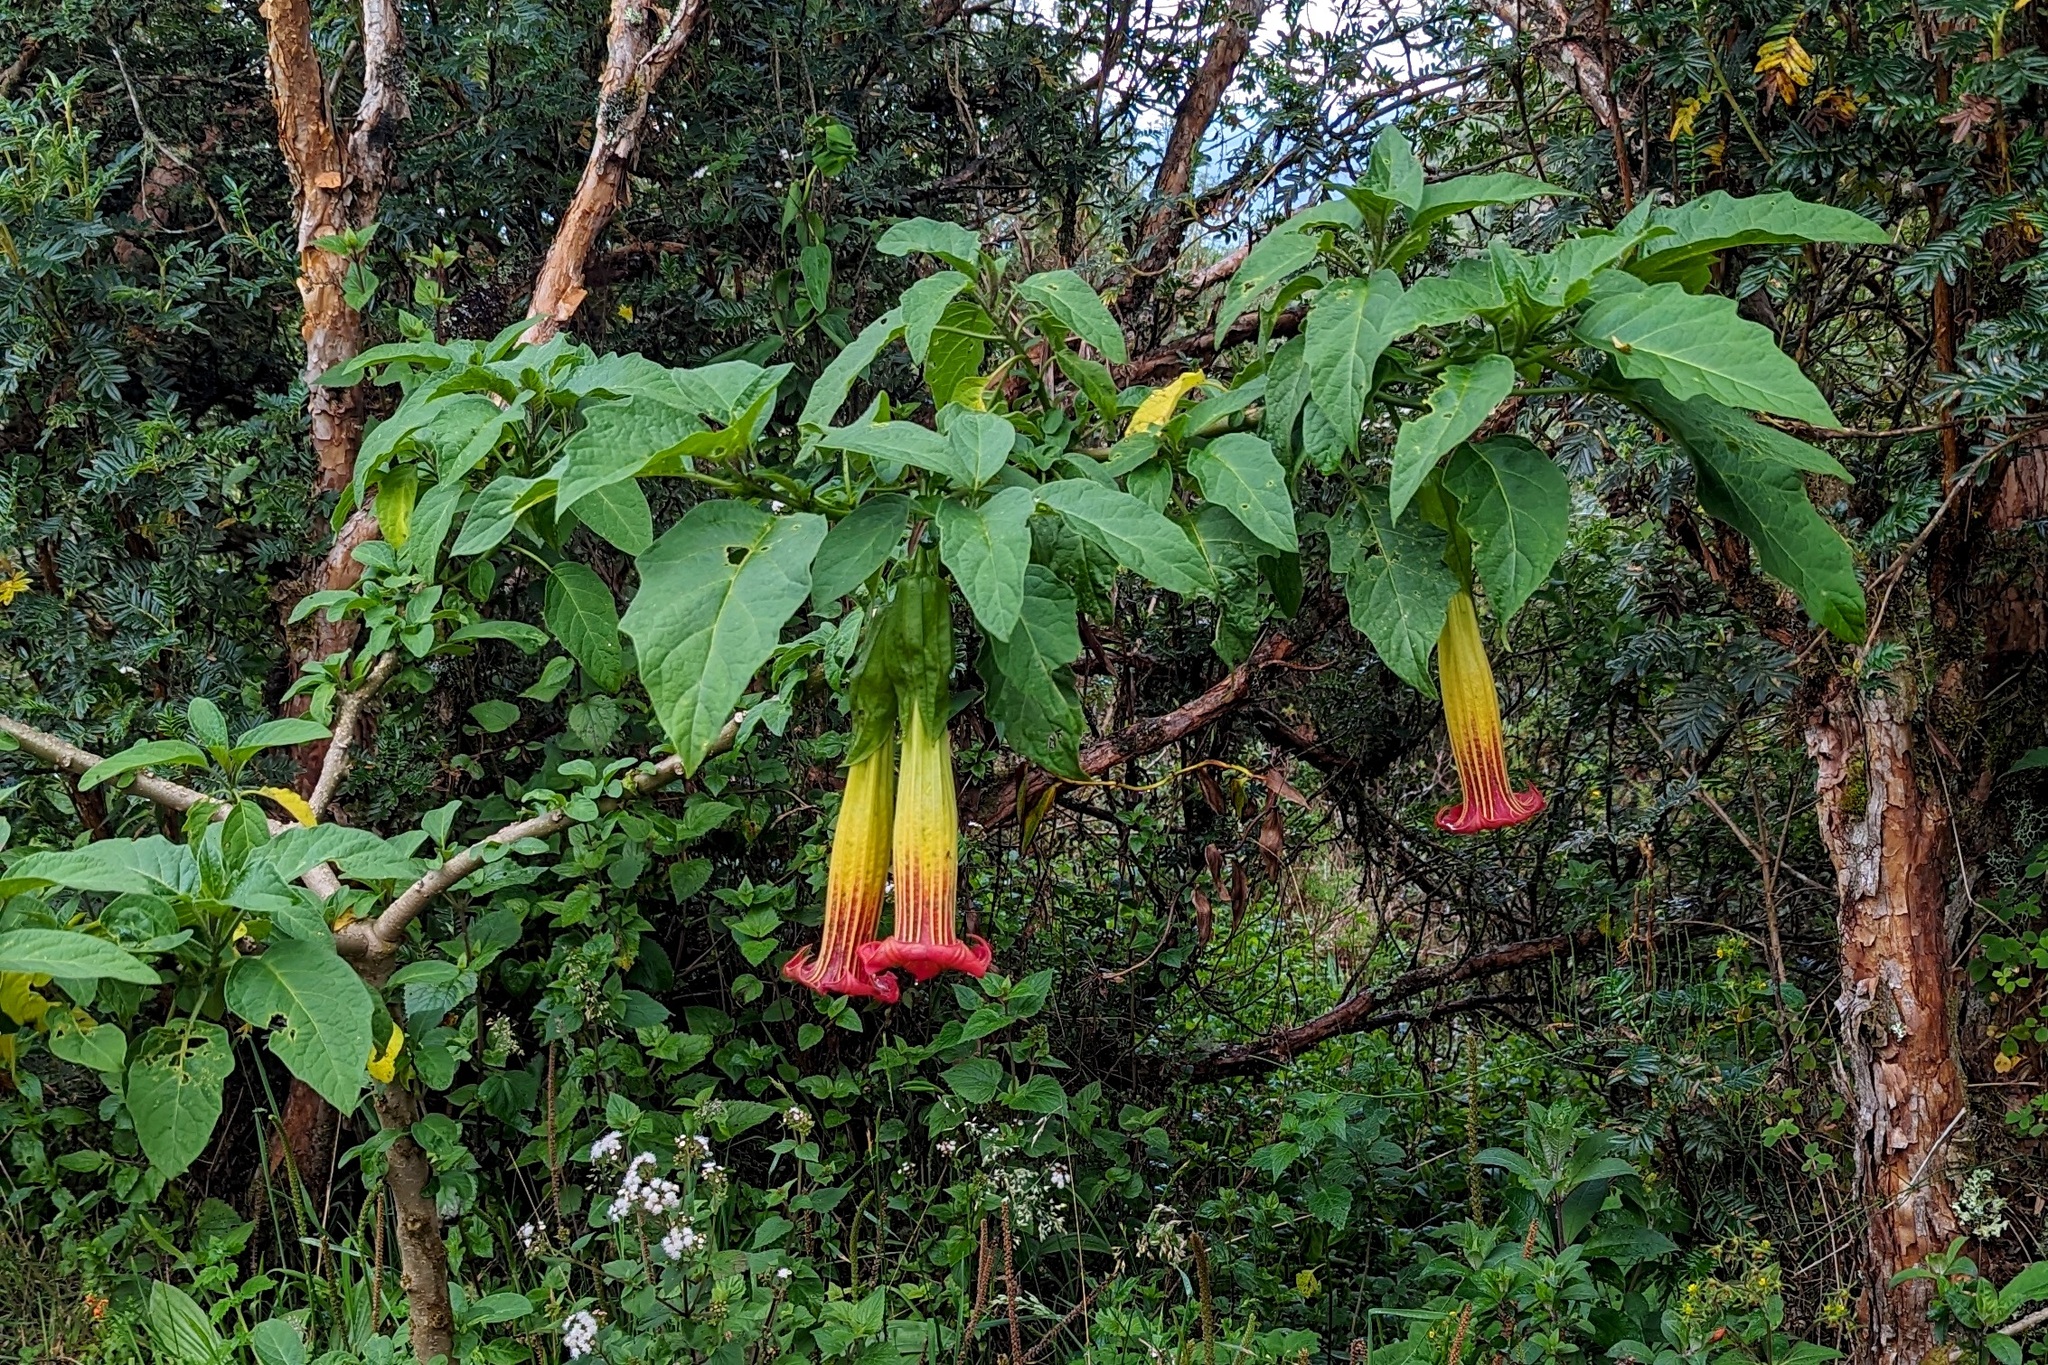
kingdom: Plantae
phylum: Tracheophyta
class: Magnoliopsida
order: Solanales
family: Solanaceae
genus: Brugmansia
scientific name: Brugmansia sanguinea
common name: Red floripontio
